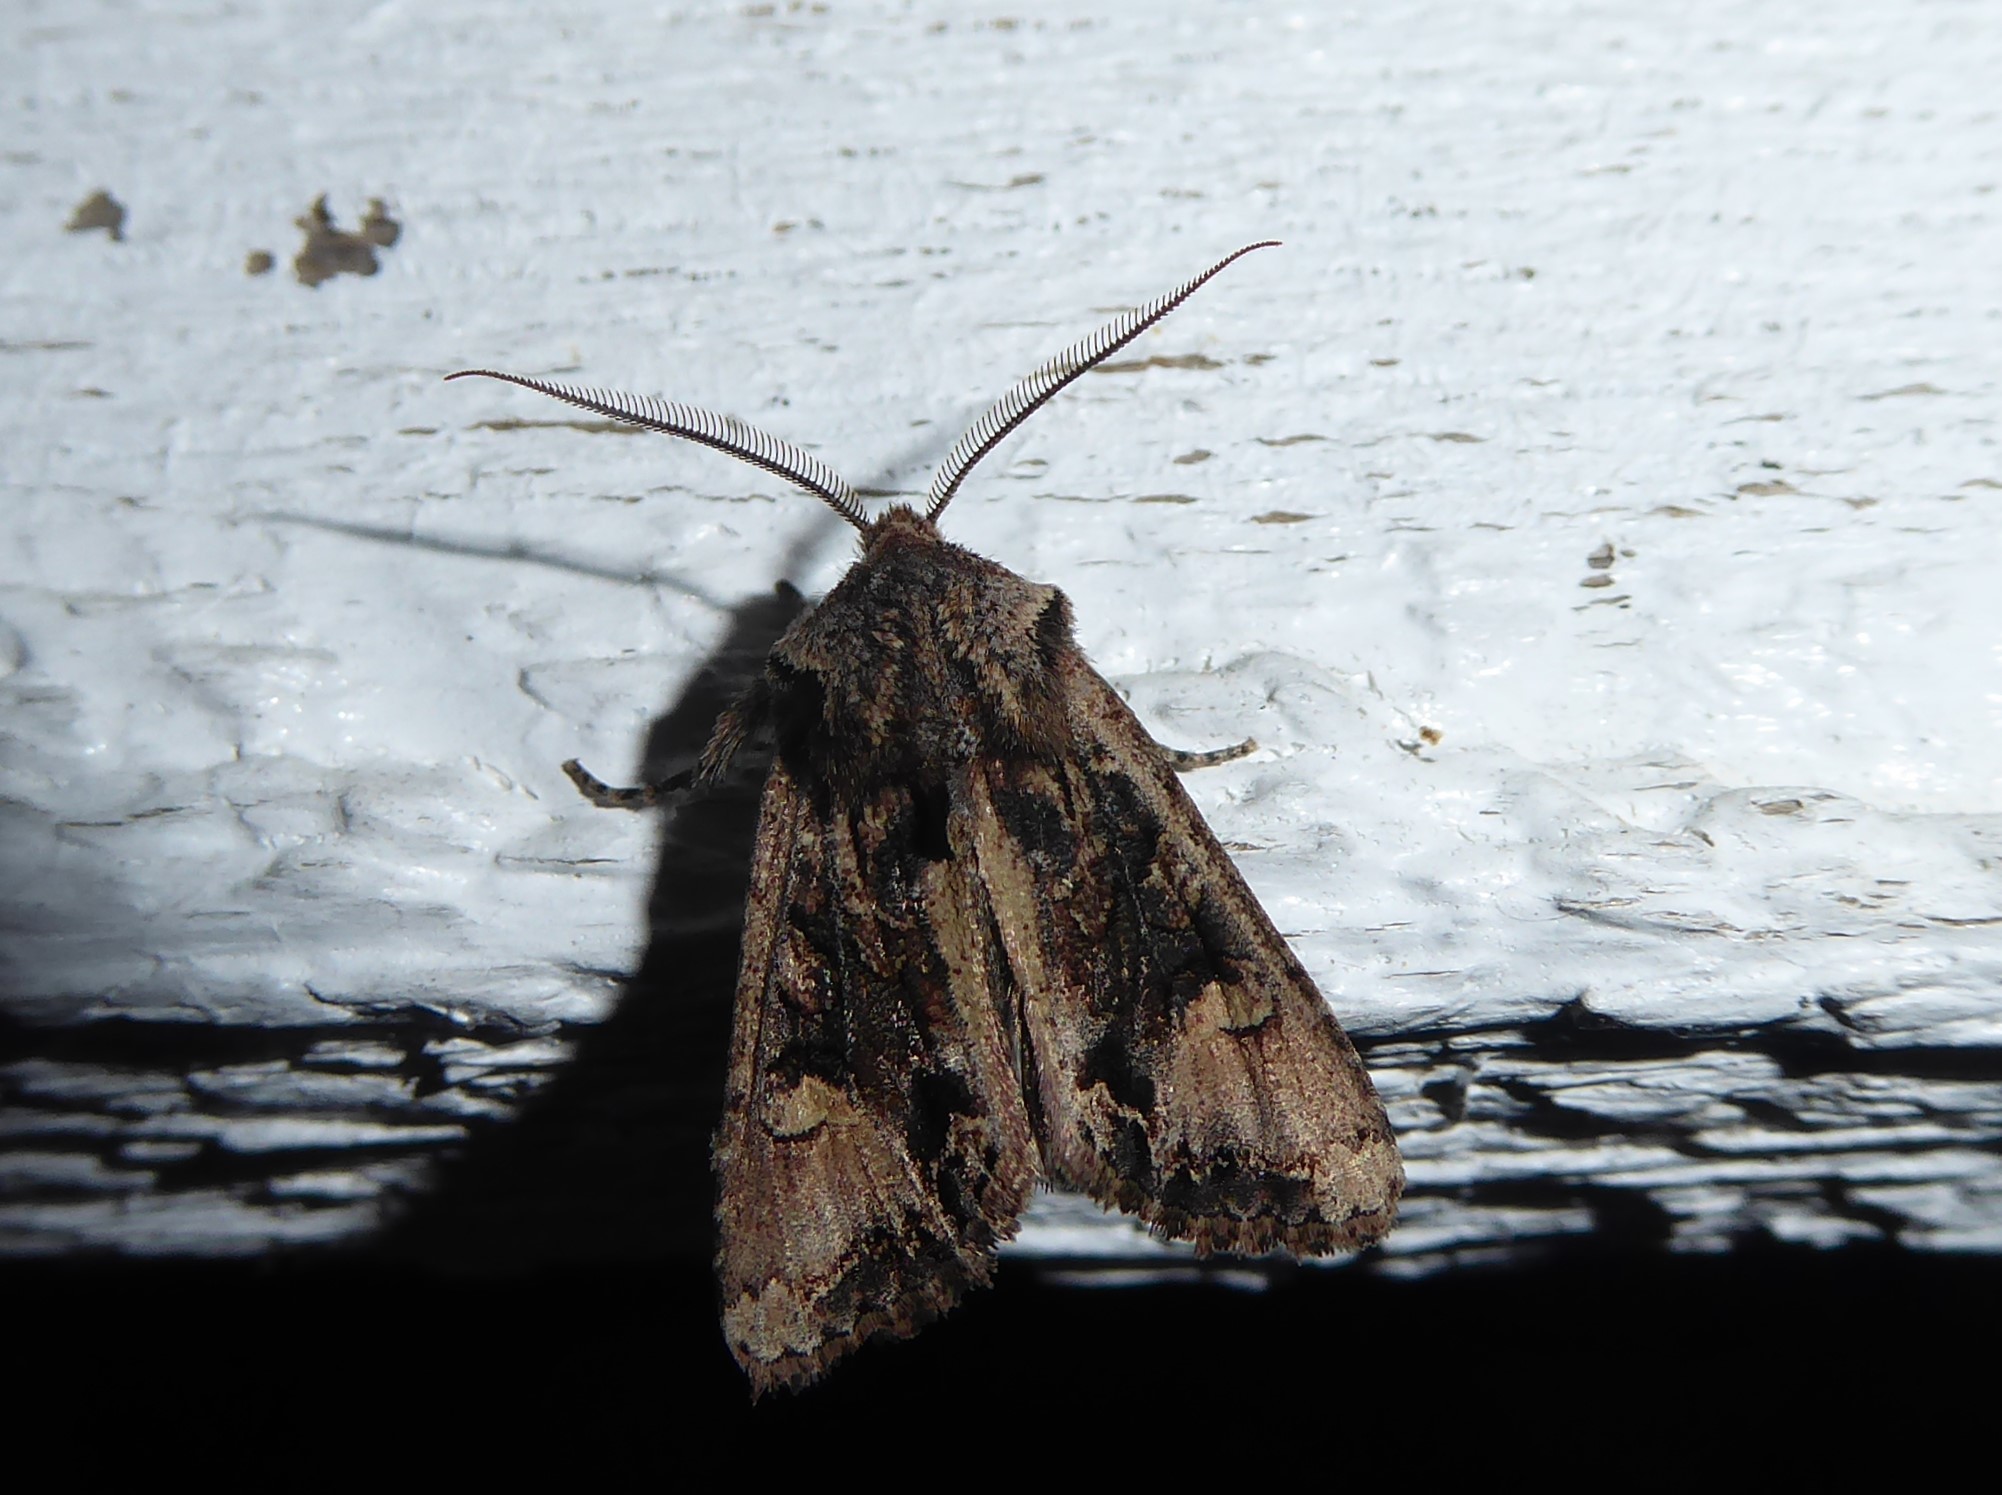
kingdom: Animalia
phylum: Arthropoda
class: Insecta
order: Lepidoptera
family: Noctuidae
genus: Ichneutica
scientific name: Ichneutica
